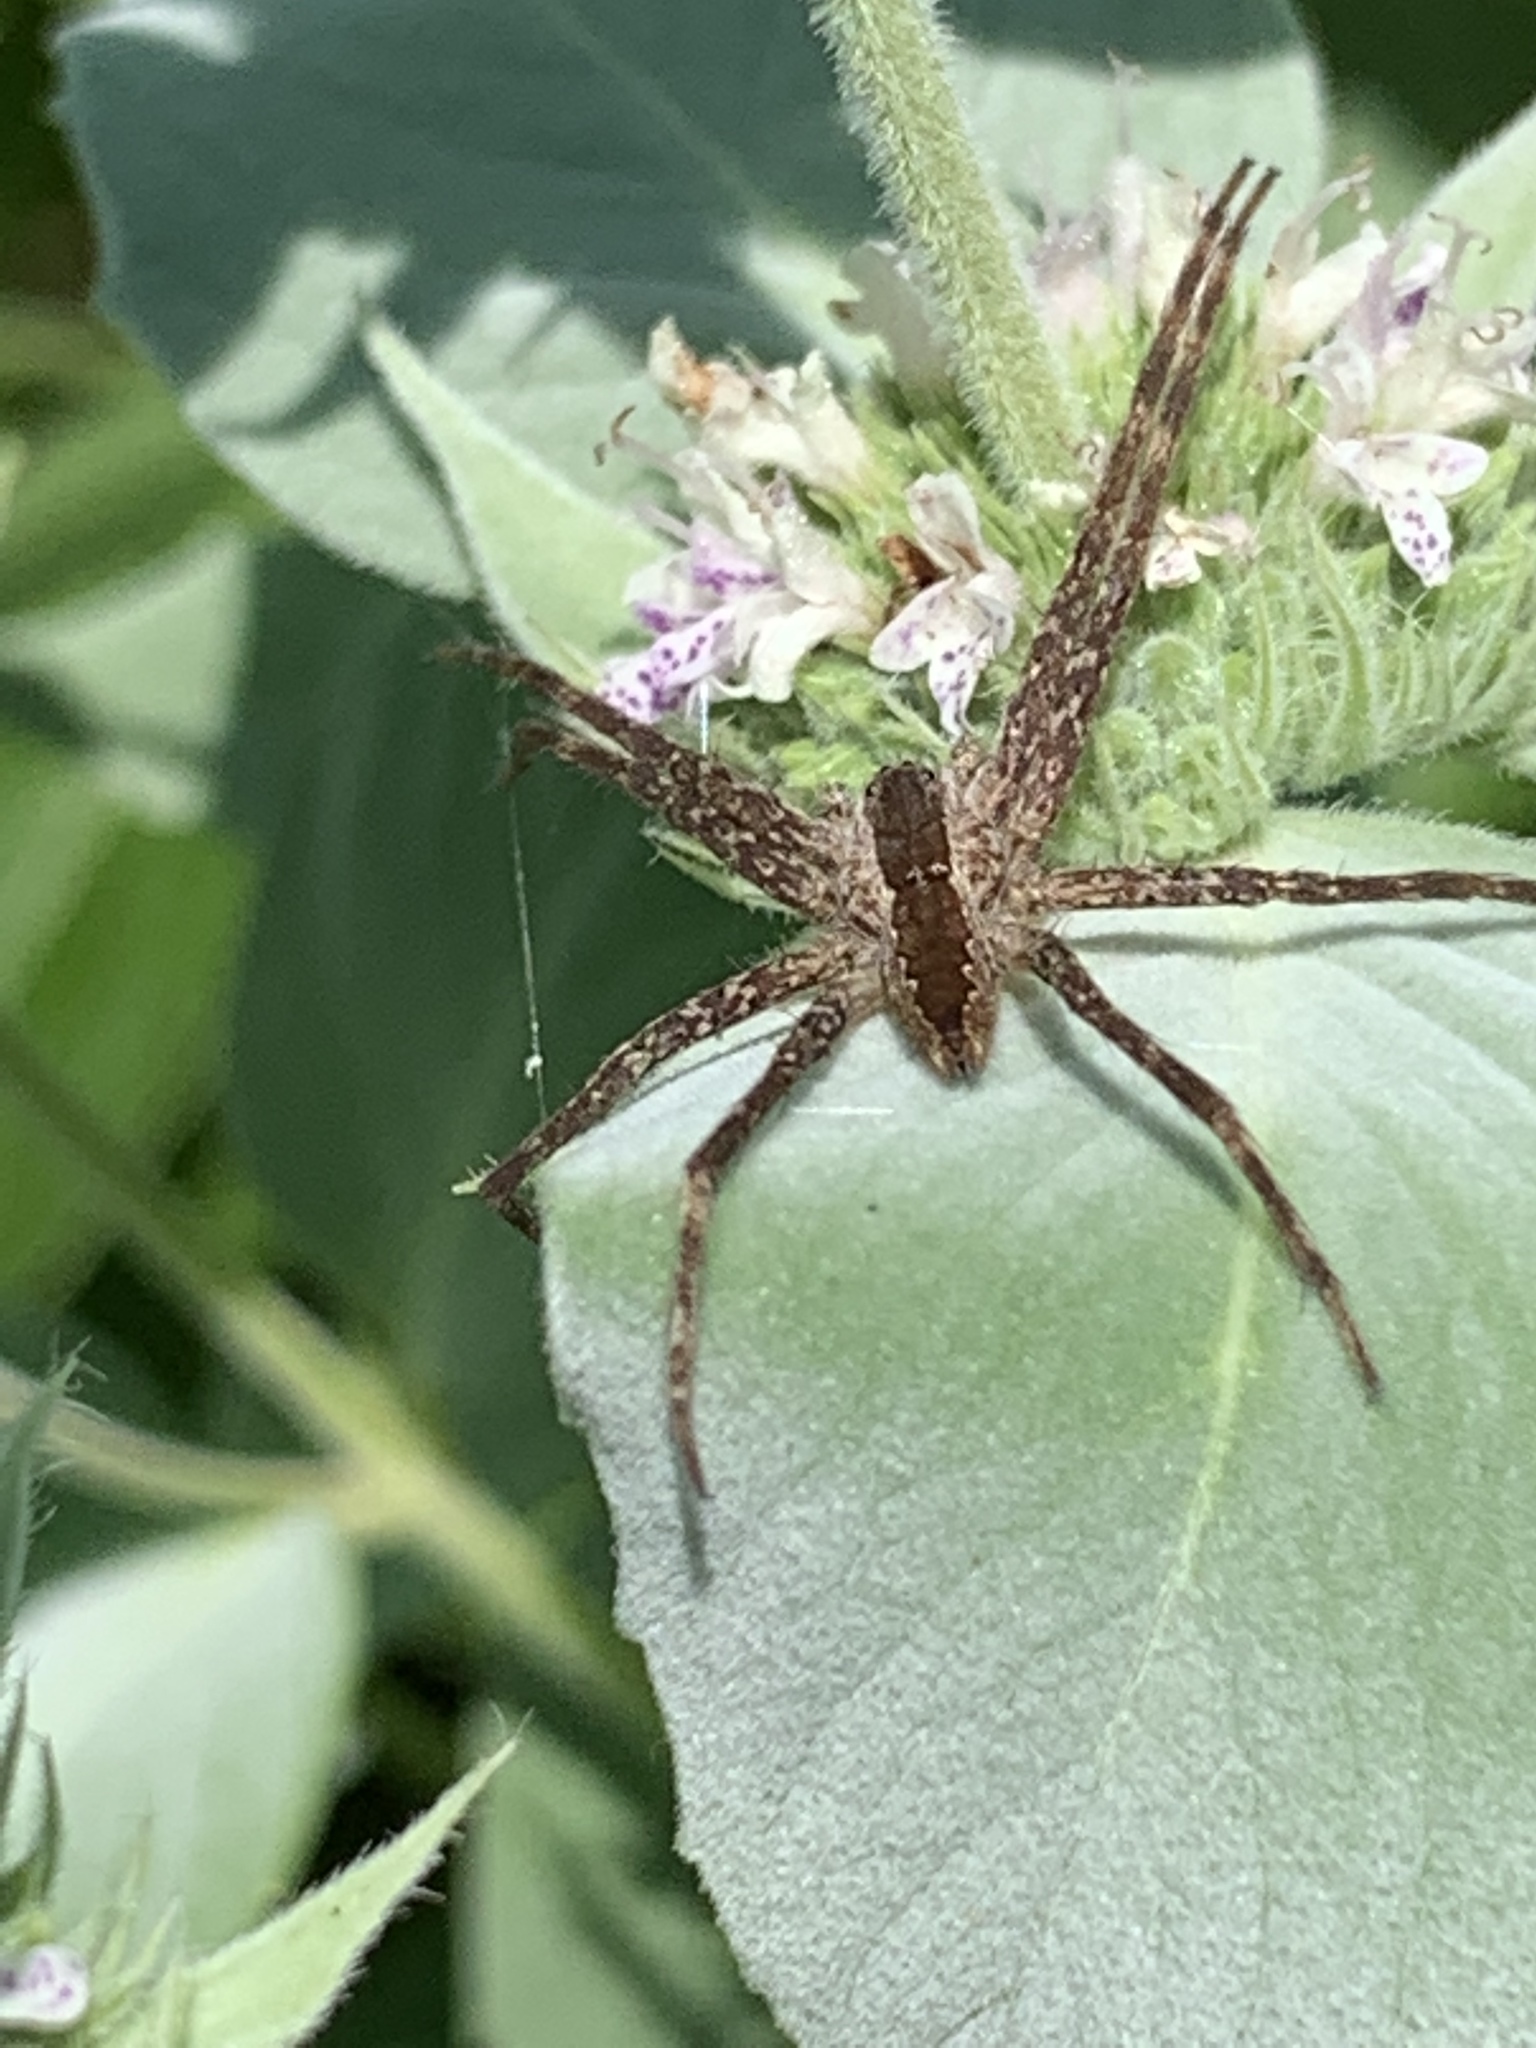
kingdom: Animalia
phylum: Arthropoda
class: Arachnida
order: Araneae
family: Pisauridae
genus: Pisaurina
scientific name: Pisaurina mira
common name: American nursery web spider
